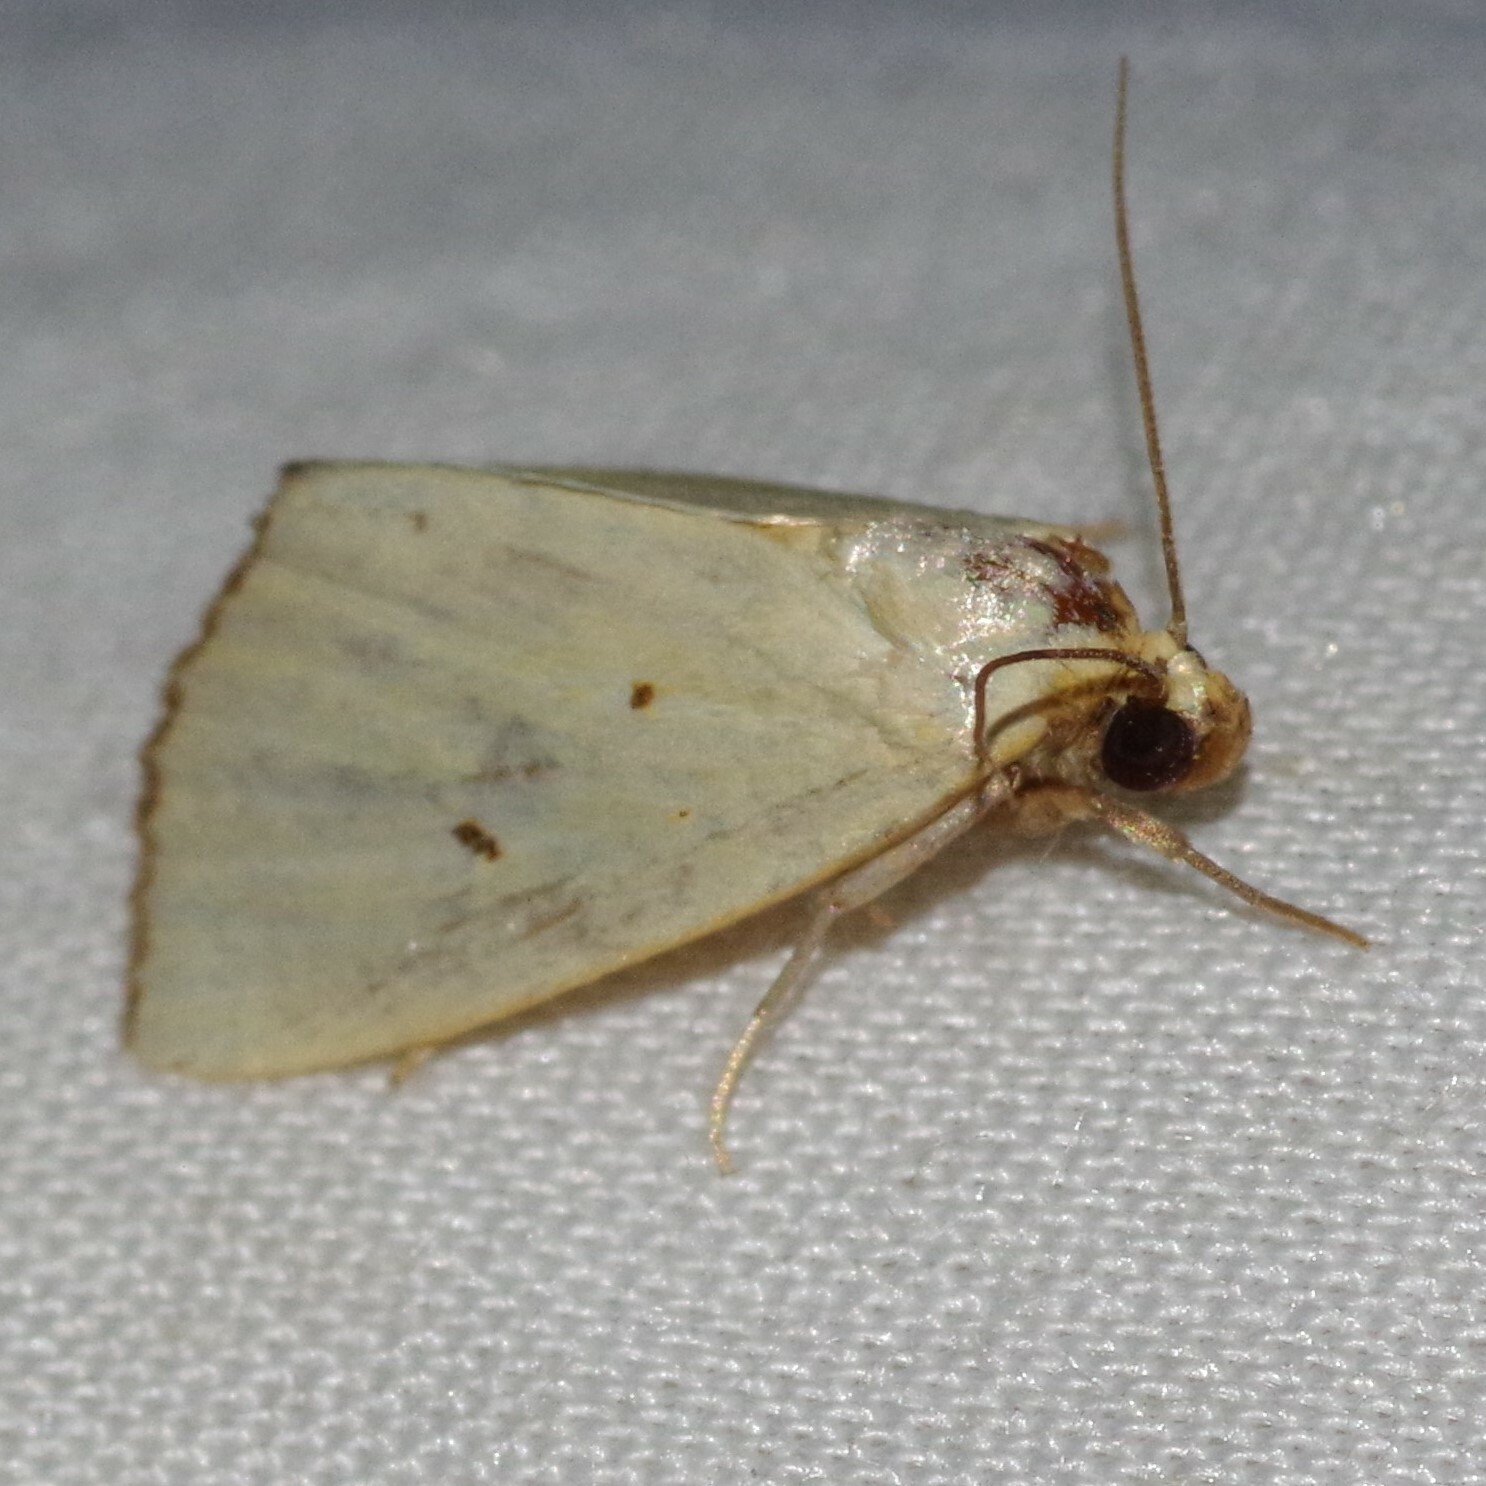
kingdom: Animalia
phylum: Arthropoda
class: Insecta
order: Lepidoptera
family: Noctuidae
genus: Marimatha
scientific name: Marimatha nigrofimbria
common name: Black-bordered lemon moth
